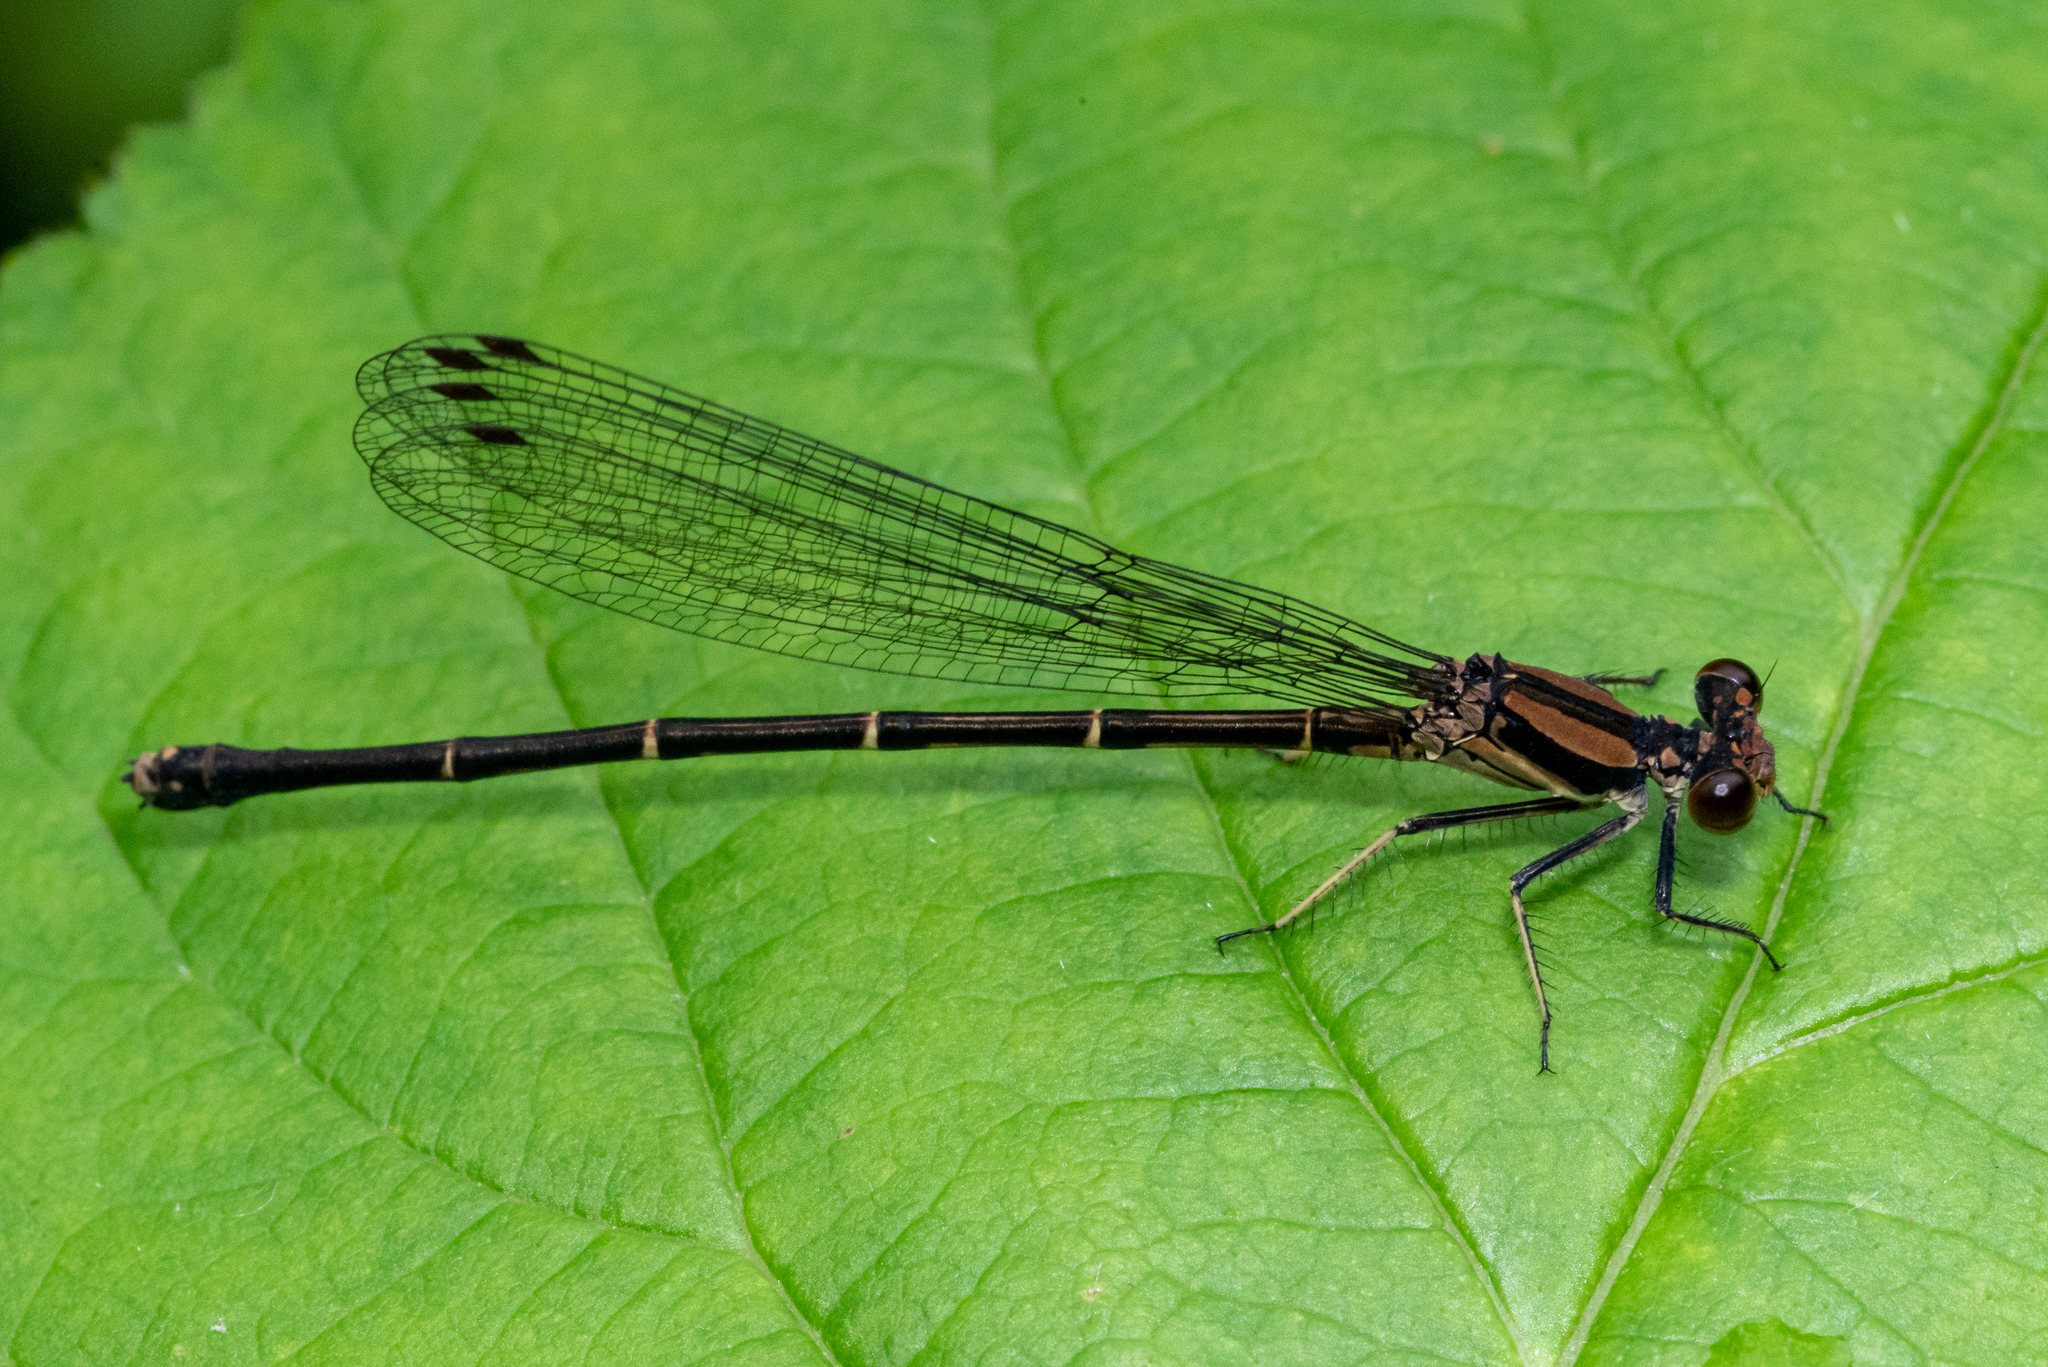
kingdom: Animalia
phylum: Arthropoda
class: Insecta
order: Odonata
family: Coenagrionidae
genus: Argia
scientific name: Argia tibialis
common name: Blue-tipped dancer
